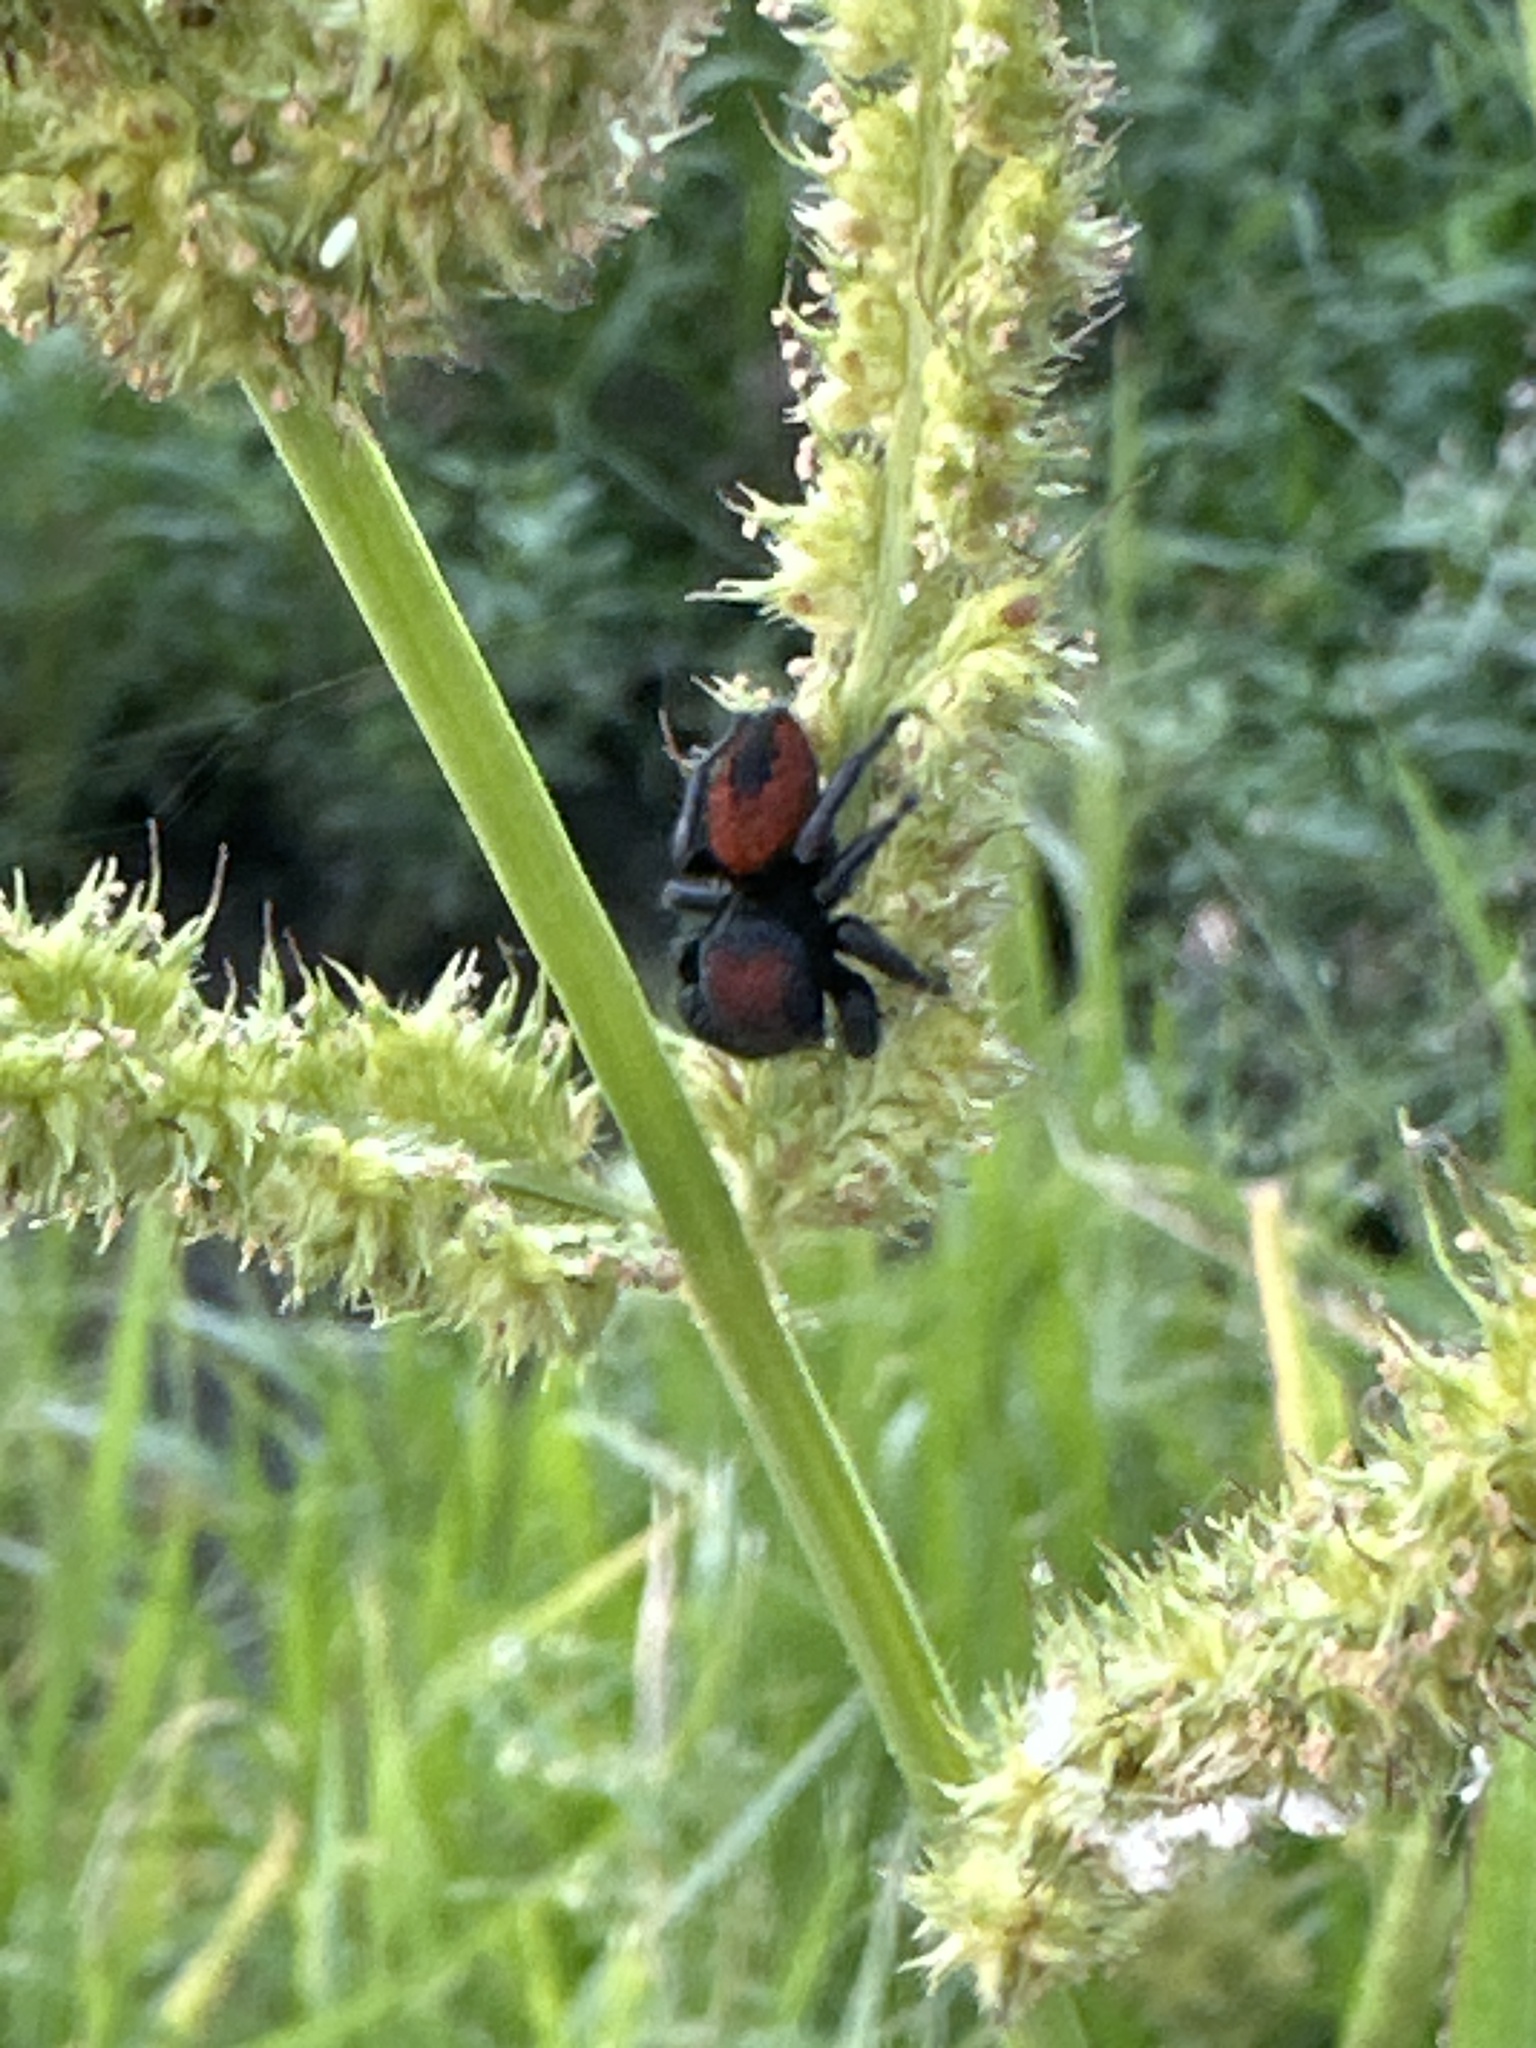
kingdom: Animalia
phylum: Arthropoda
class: Arachnida
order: Araneae
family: Salticidae
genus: Phidippus
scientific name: Phidippus apacheanus
